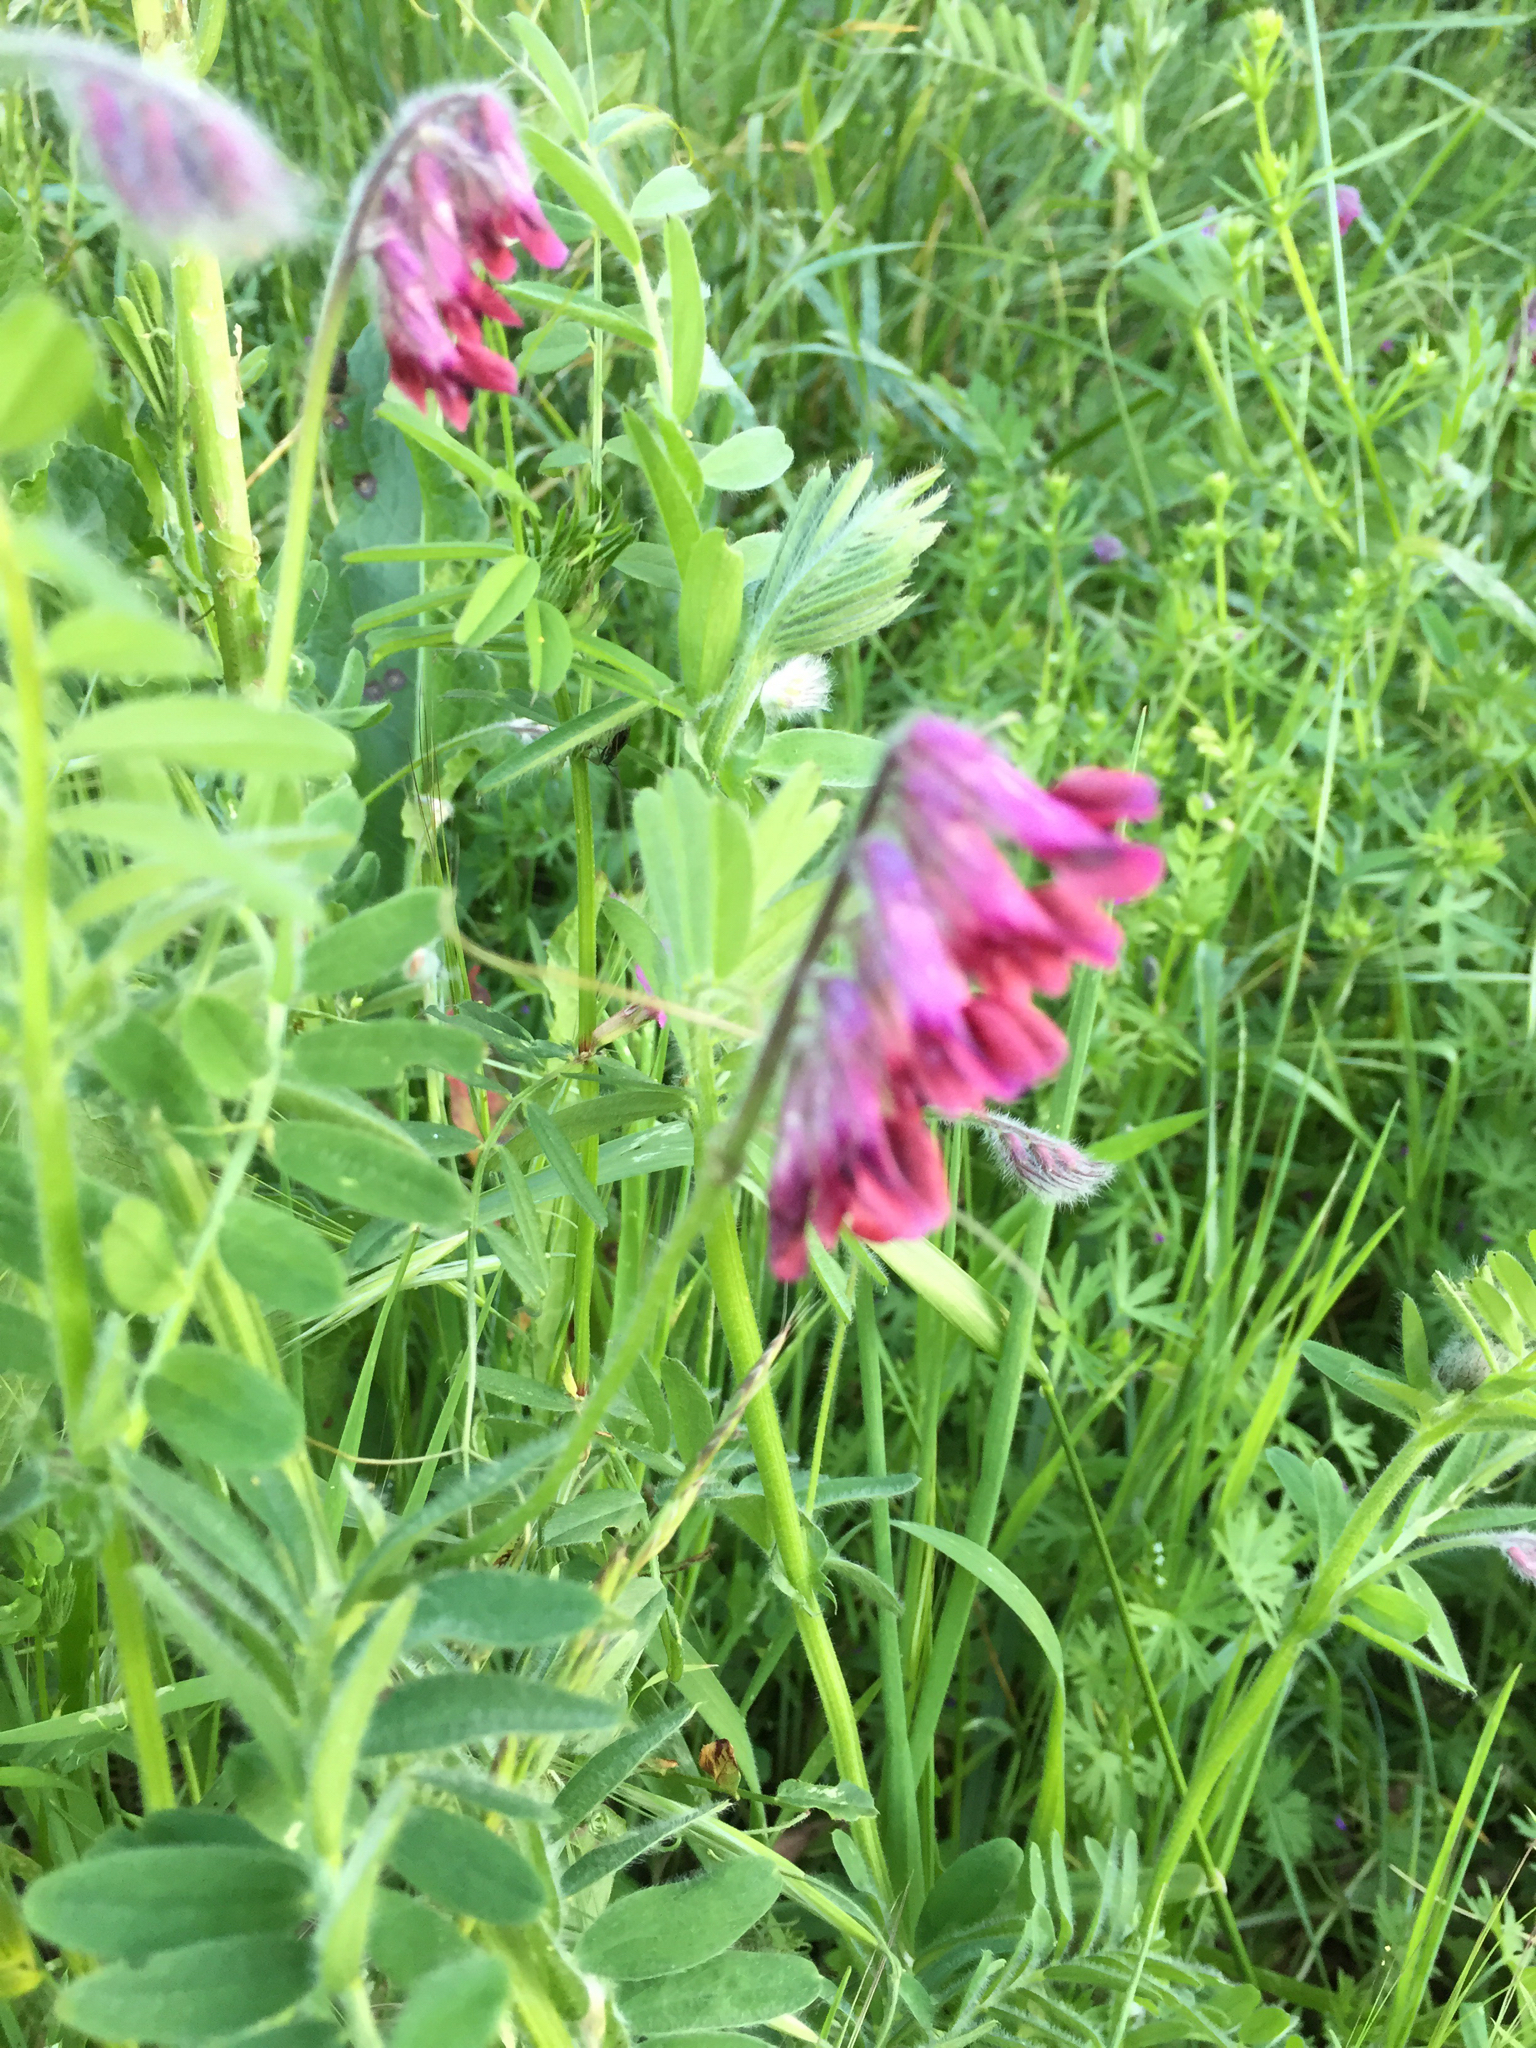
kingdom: Plantae
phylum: Tracheophyta
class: Magnoliopsida
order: Fabales
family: Fabaceae
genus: Vicia
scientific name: Vicia benghalensis
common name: Purple vetch
